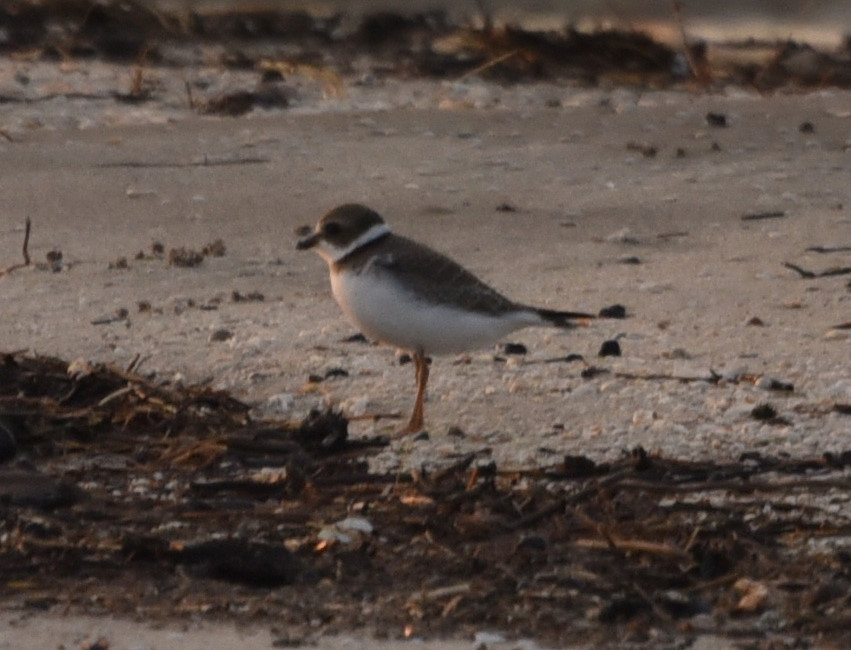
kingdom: Animalia
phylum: Chordata
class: Aves
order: Charadriiformes
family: Charadriidae
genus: Charadrius
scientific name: Charadrius semipalmatus
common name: Semipalmated plover
